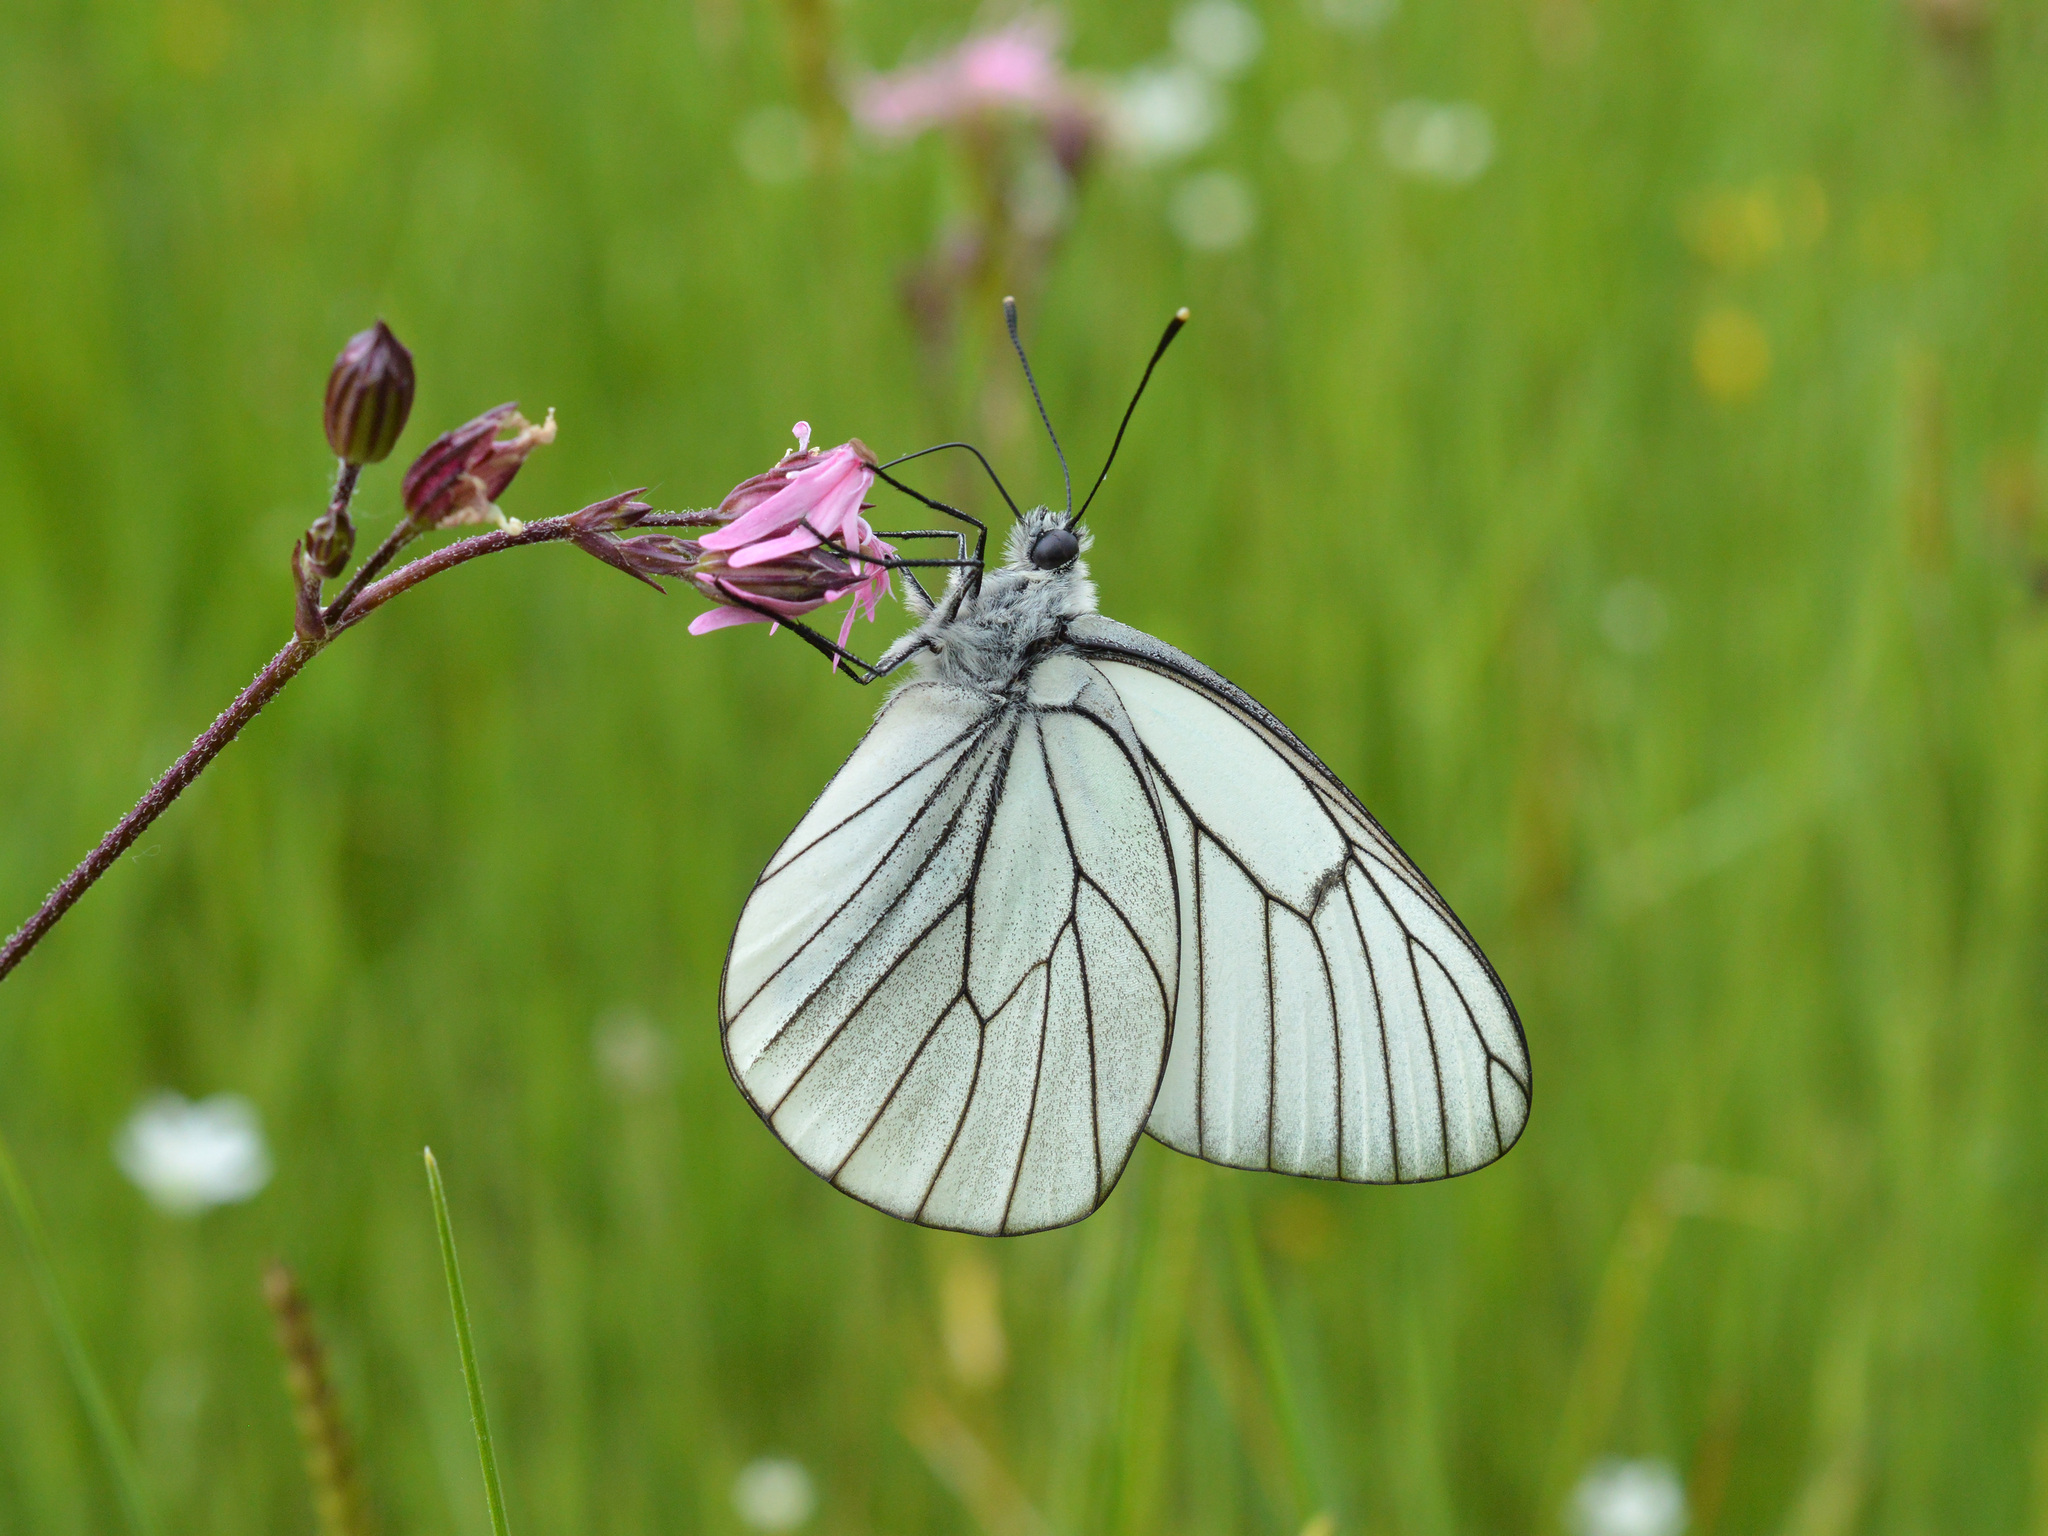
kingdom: Animalia
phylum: Arthropoda
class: Insecta
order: Lepidoptera
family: Pieridae
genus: Aporia
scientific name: Aporia crataegi
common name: Black-veined white
